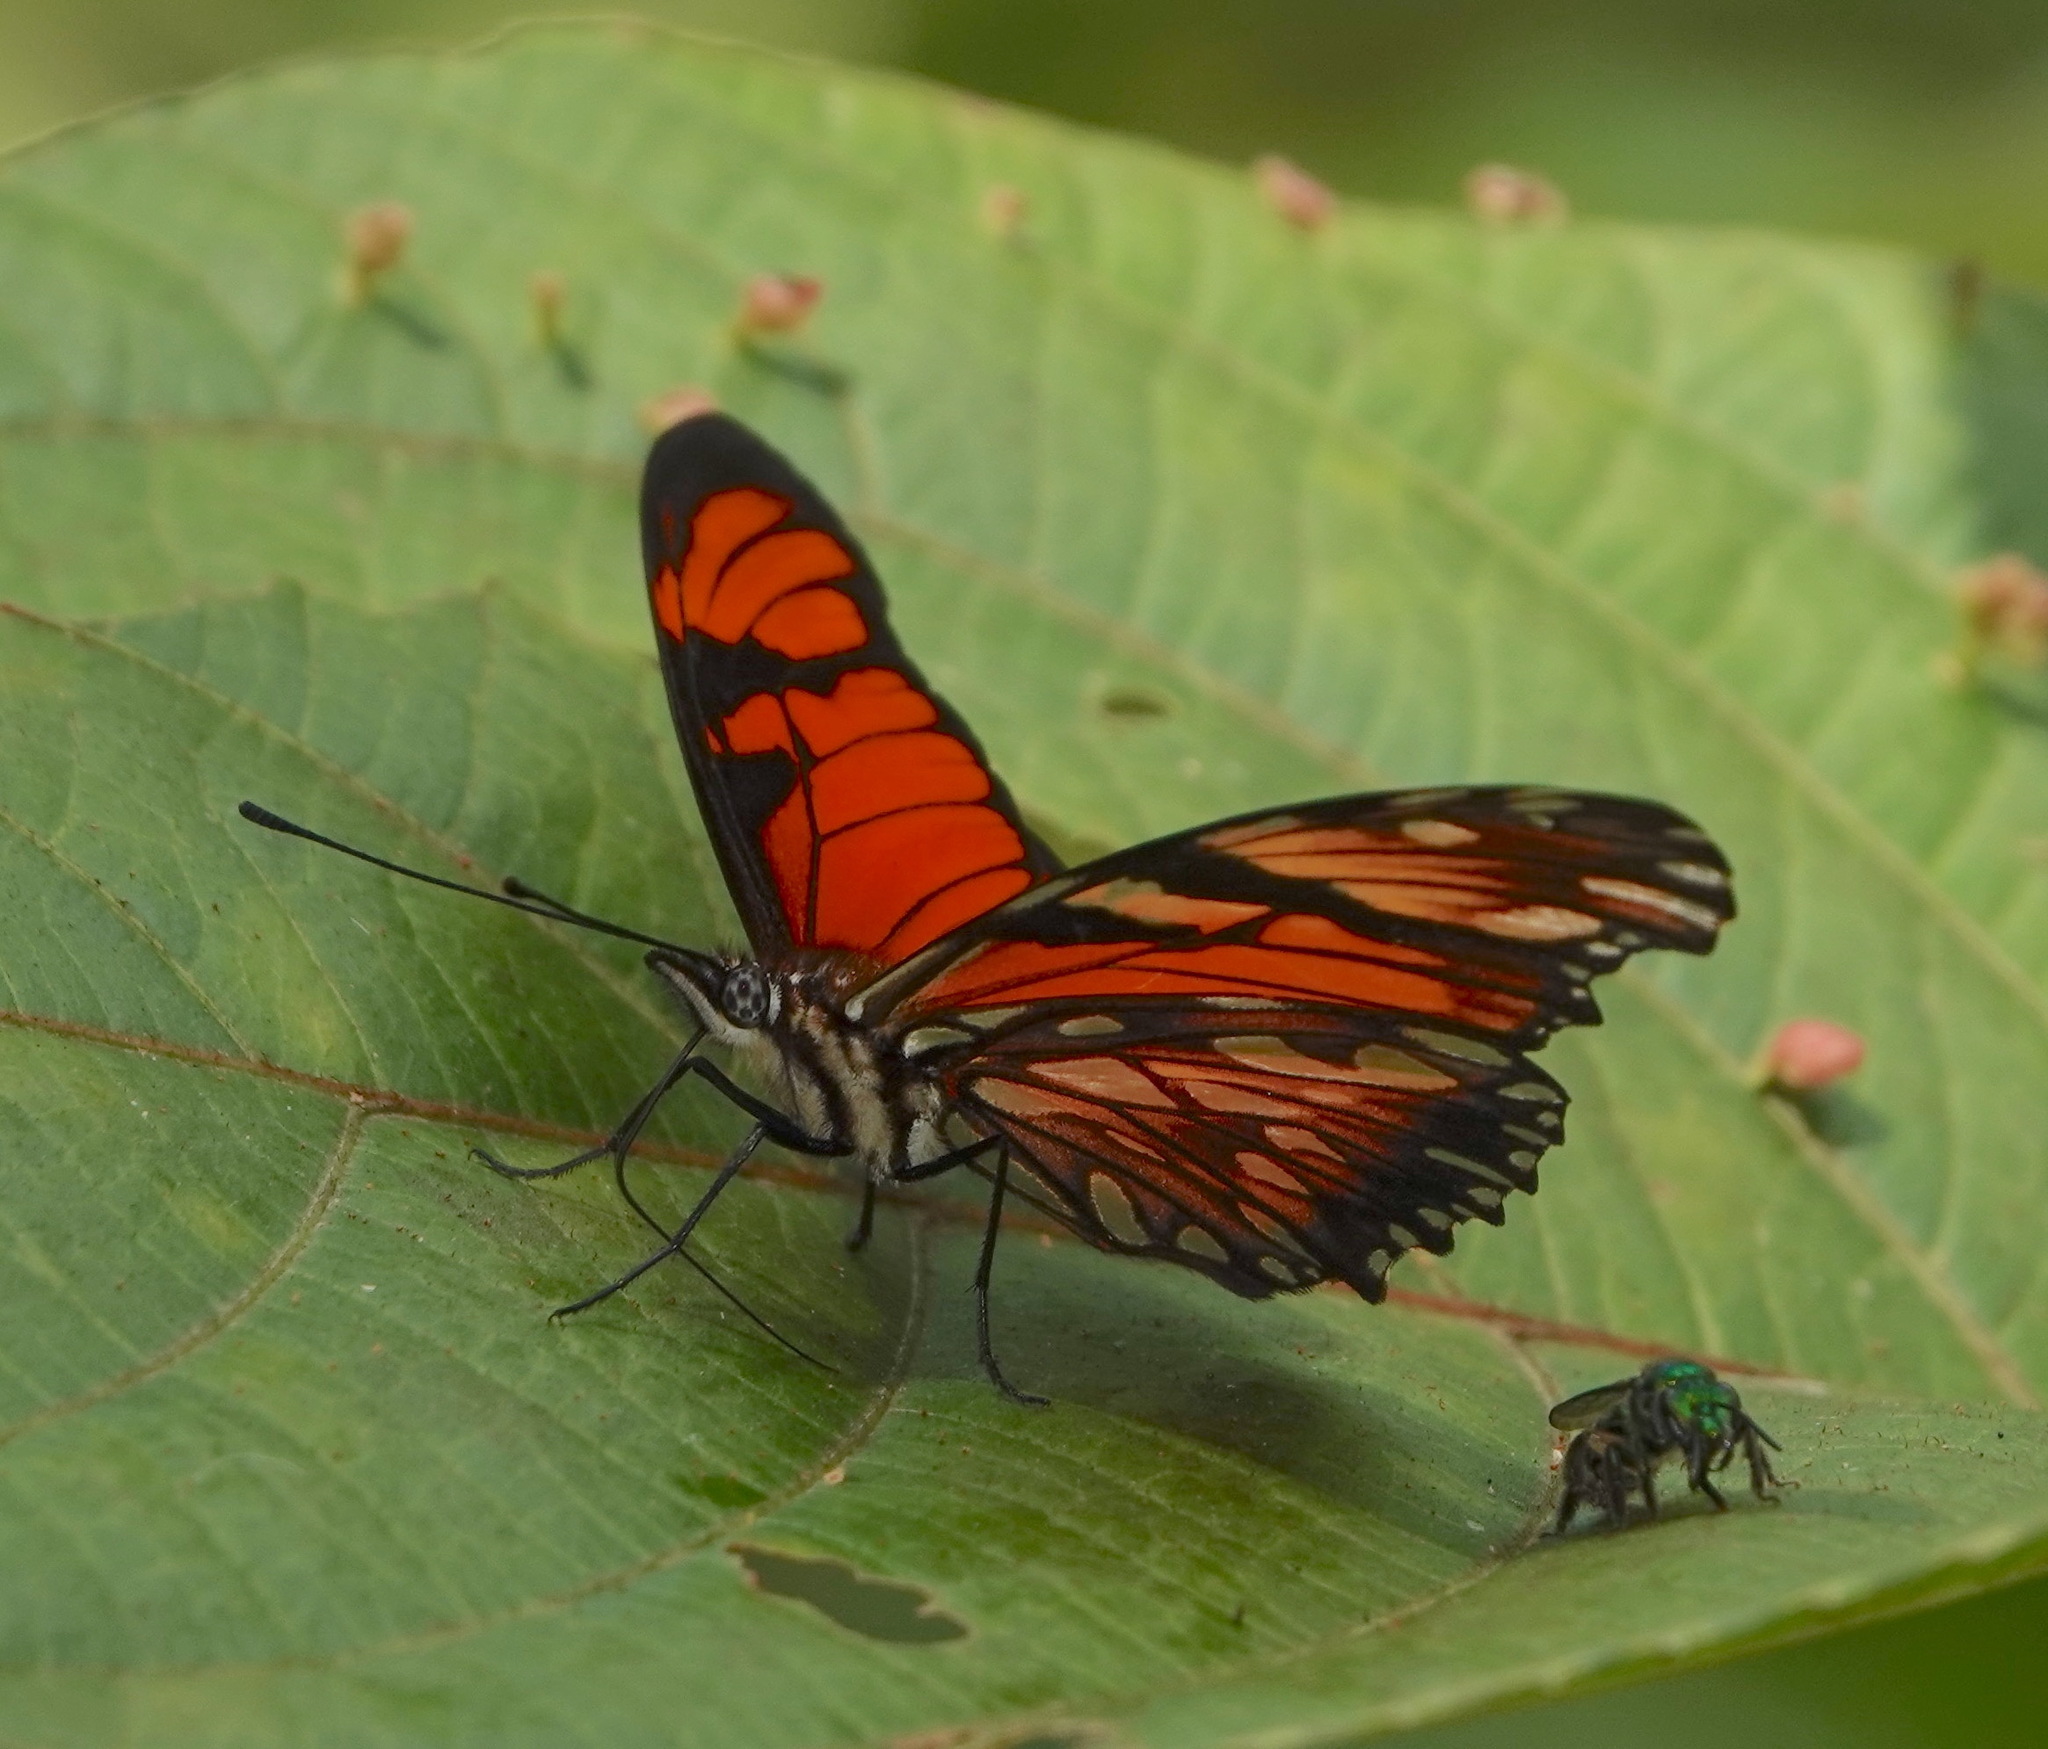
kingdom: Animalia
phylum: Arthropoda
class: Insecta
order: Lepidoptera
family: Nymphalidae
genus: Dione
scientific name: Dione juno
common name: Juno silverspot
